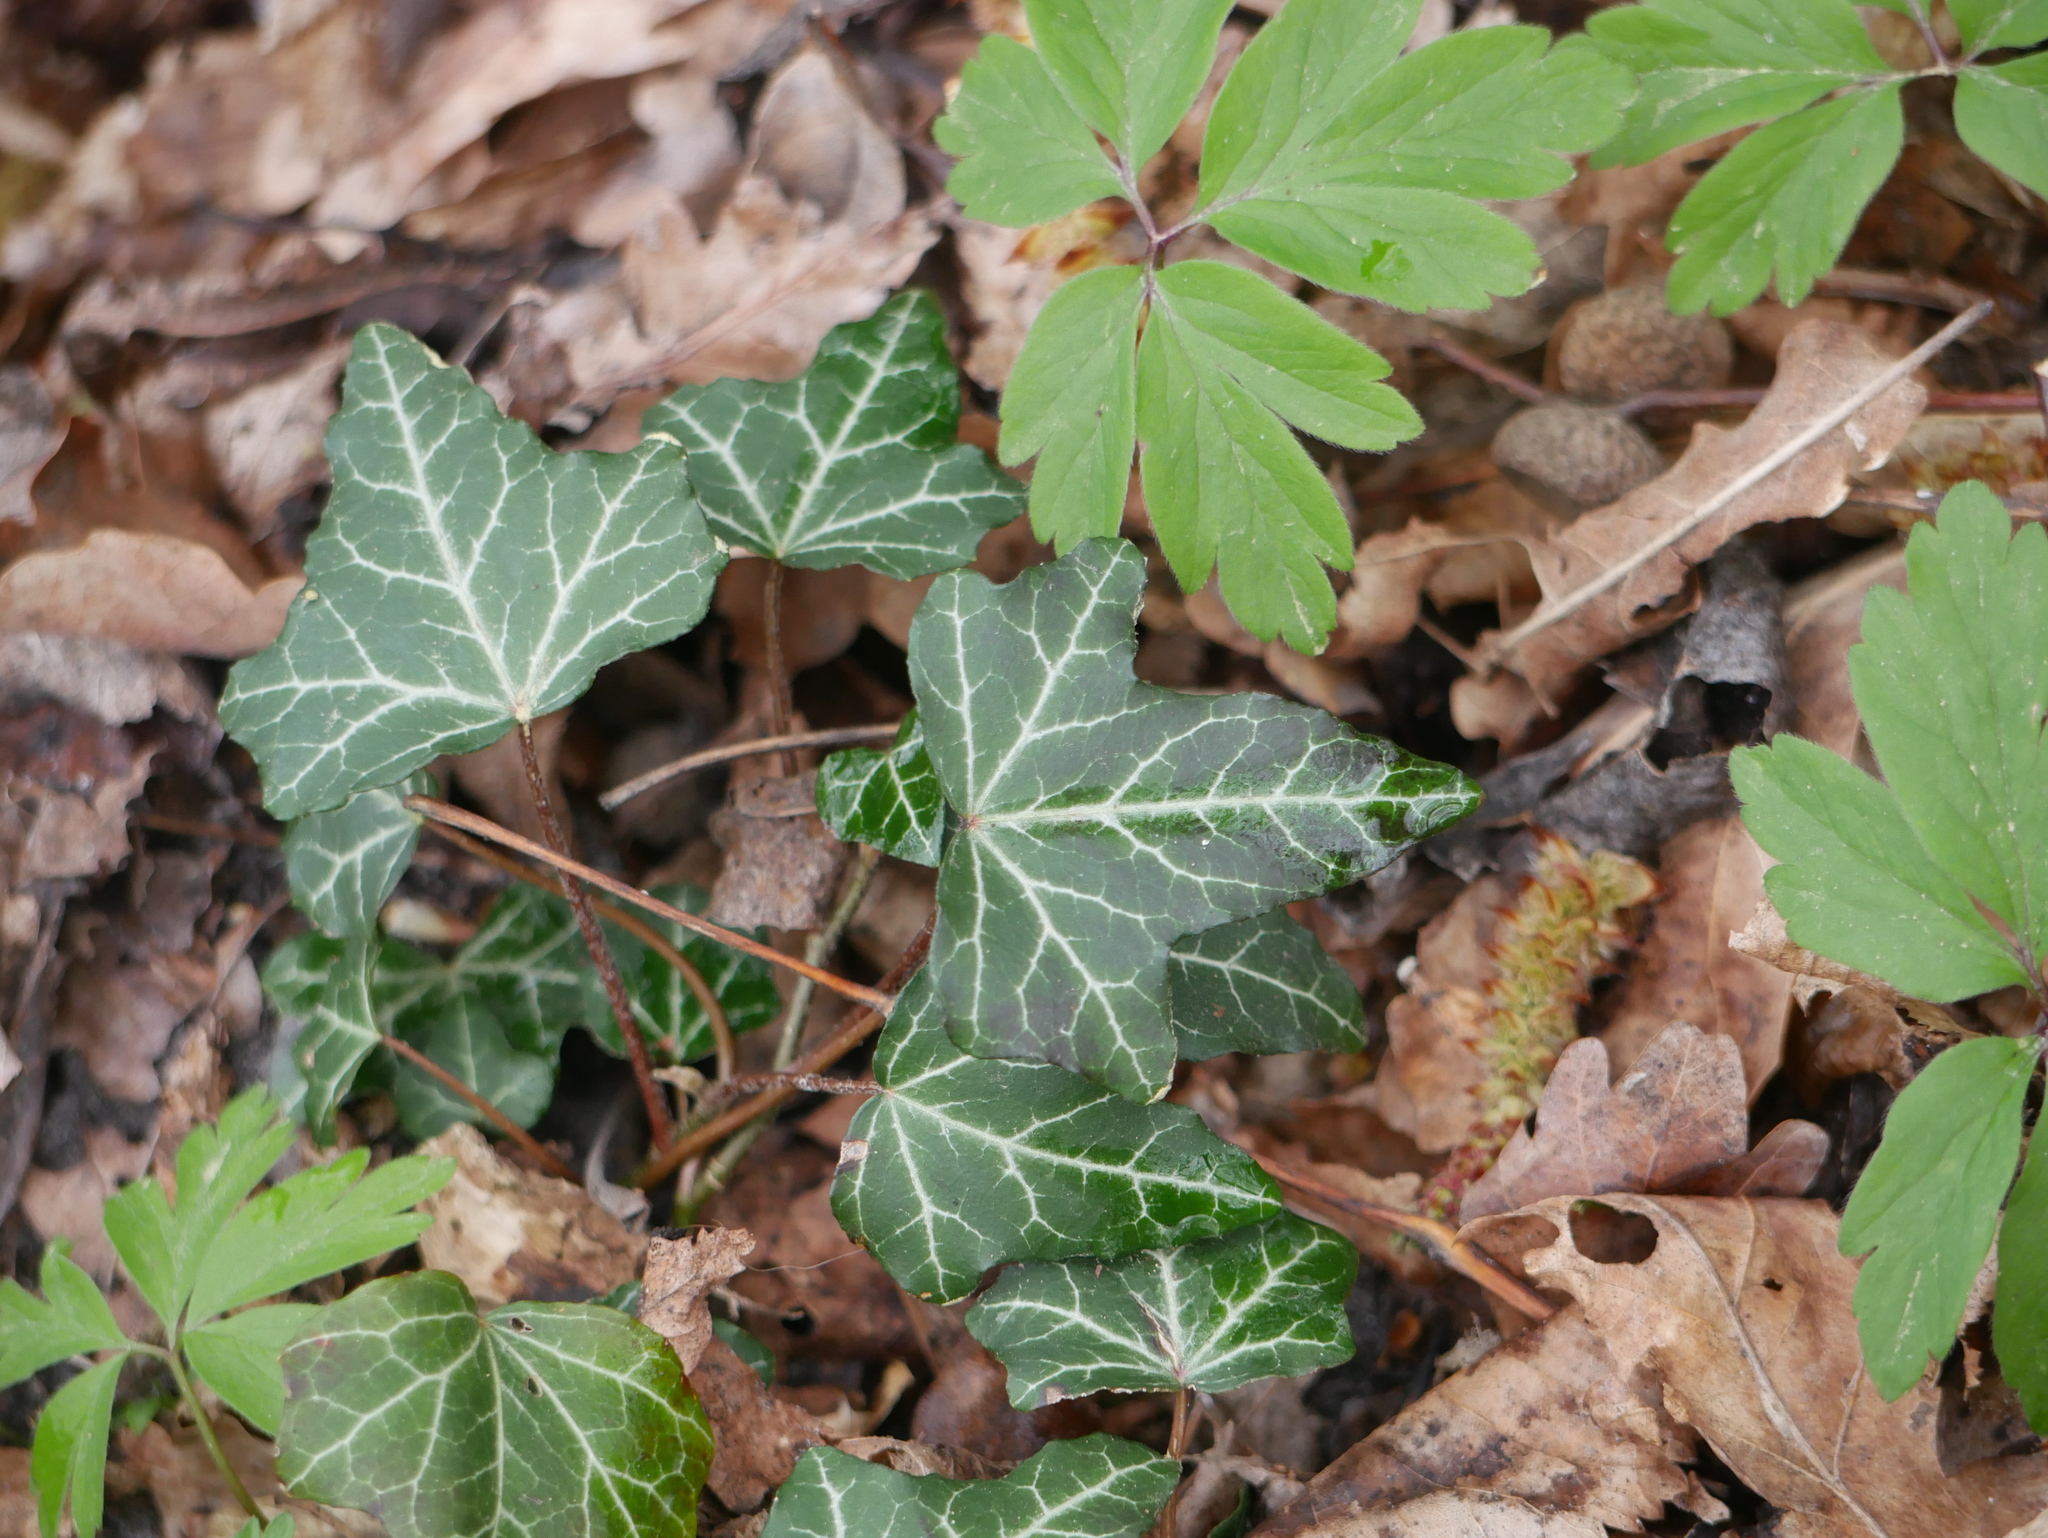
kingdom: Plantae
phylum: Tracheophyta
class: Magnoliopsida
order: Apiales
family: Araliaceae
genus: Hedera
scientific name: Hedera helix
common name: Ivy
